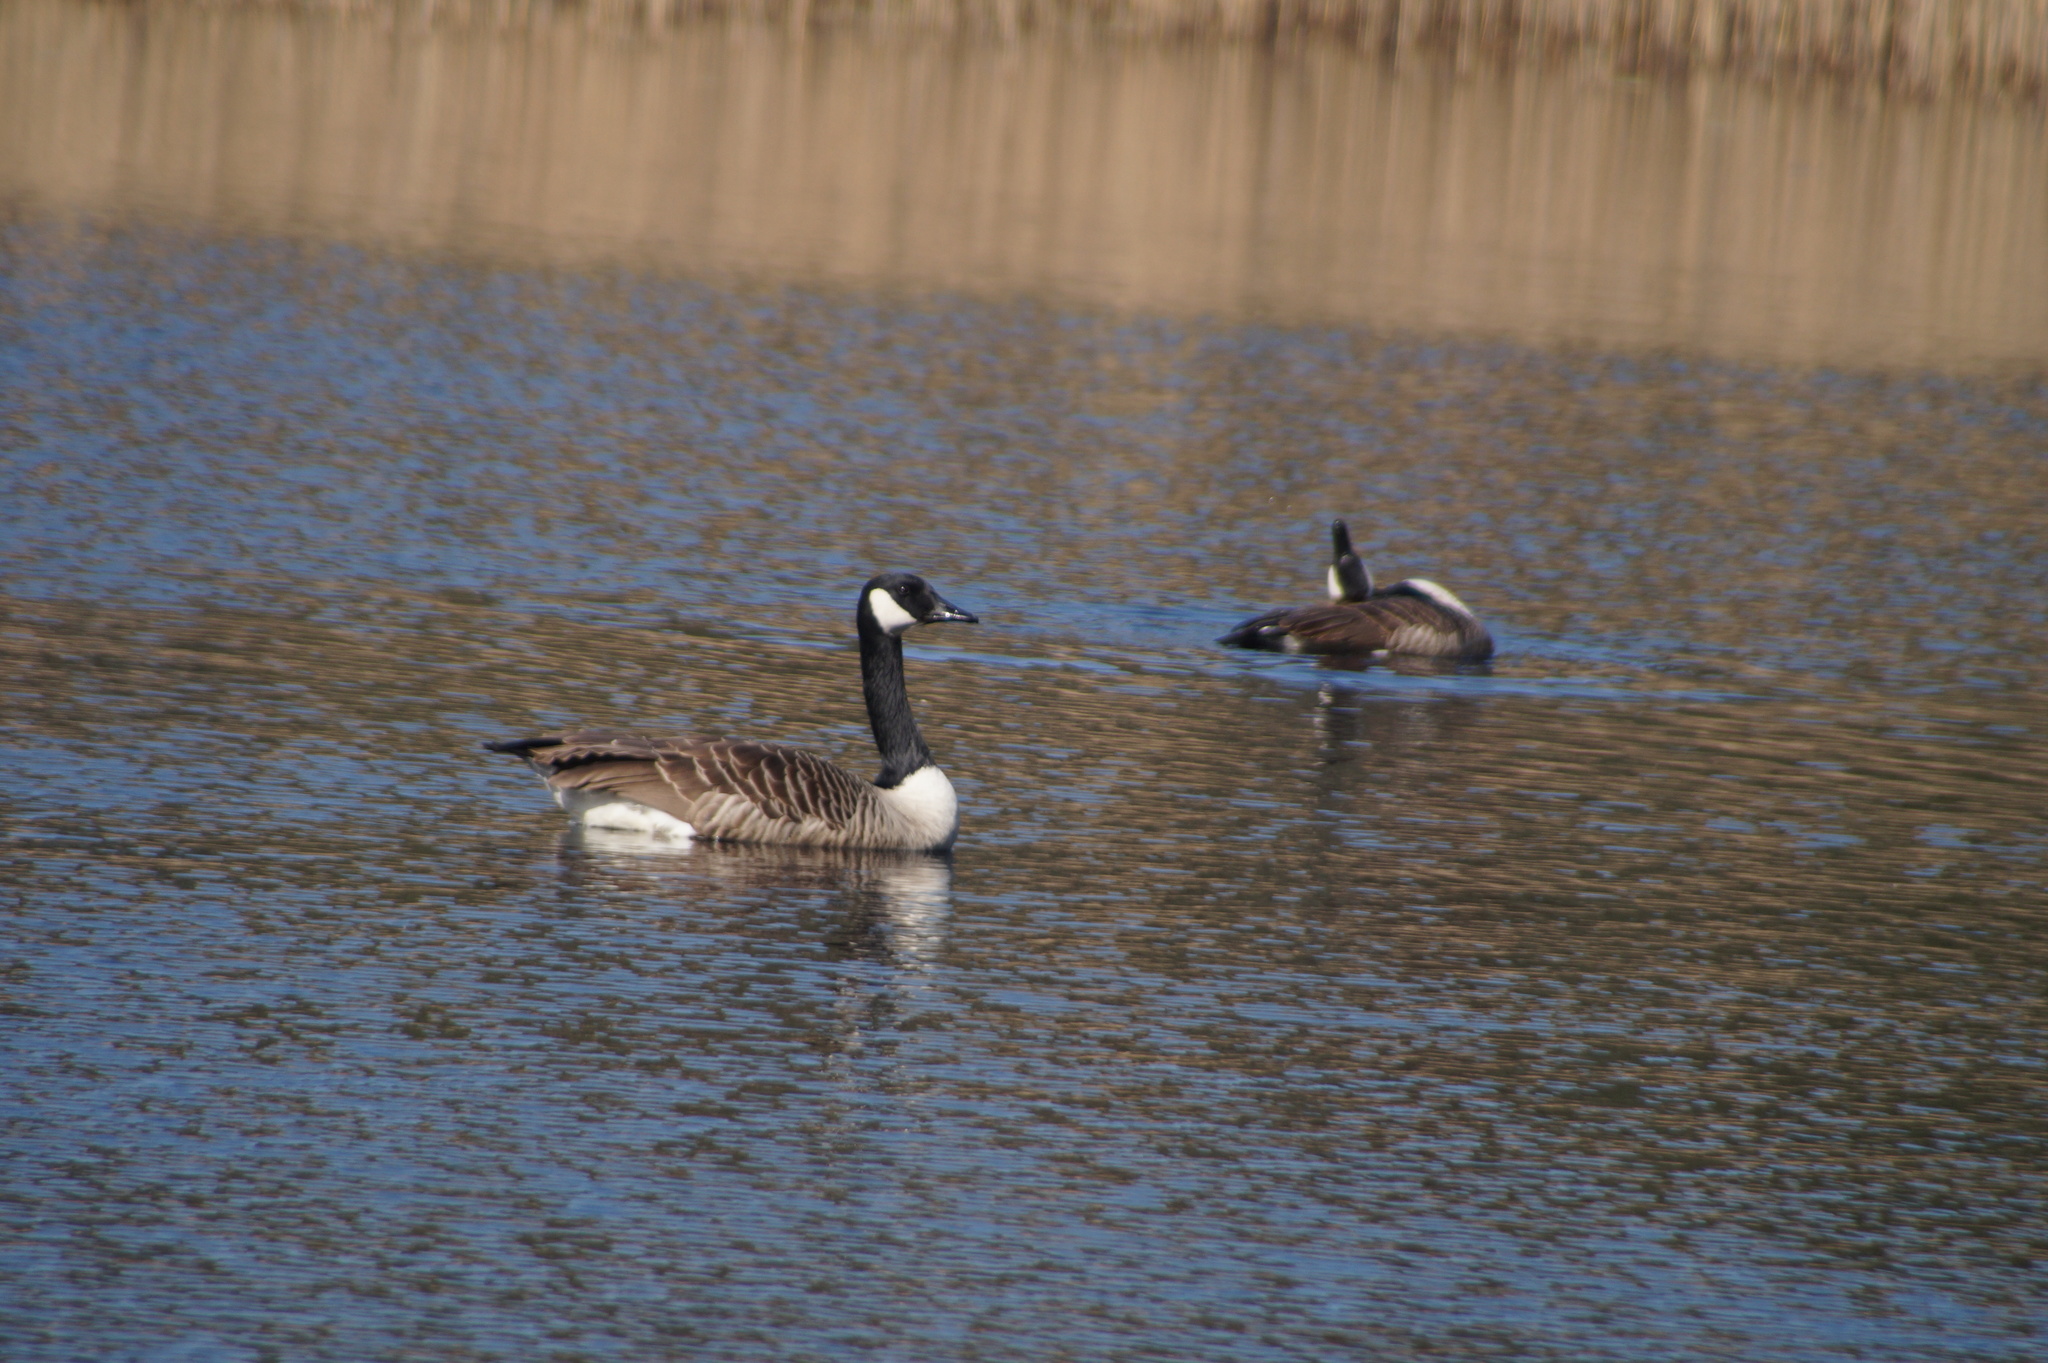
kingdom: Animalia
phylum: Chordata
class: Aves
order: Anseriformes
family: Anatidae
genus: Branta
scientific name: Branta canadensis
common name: Canada goose
